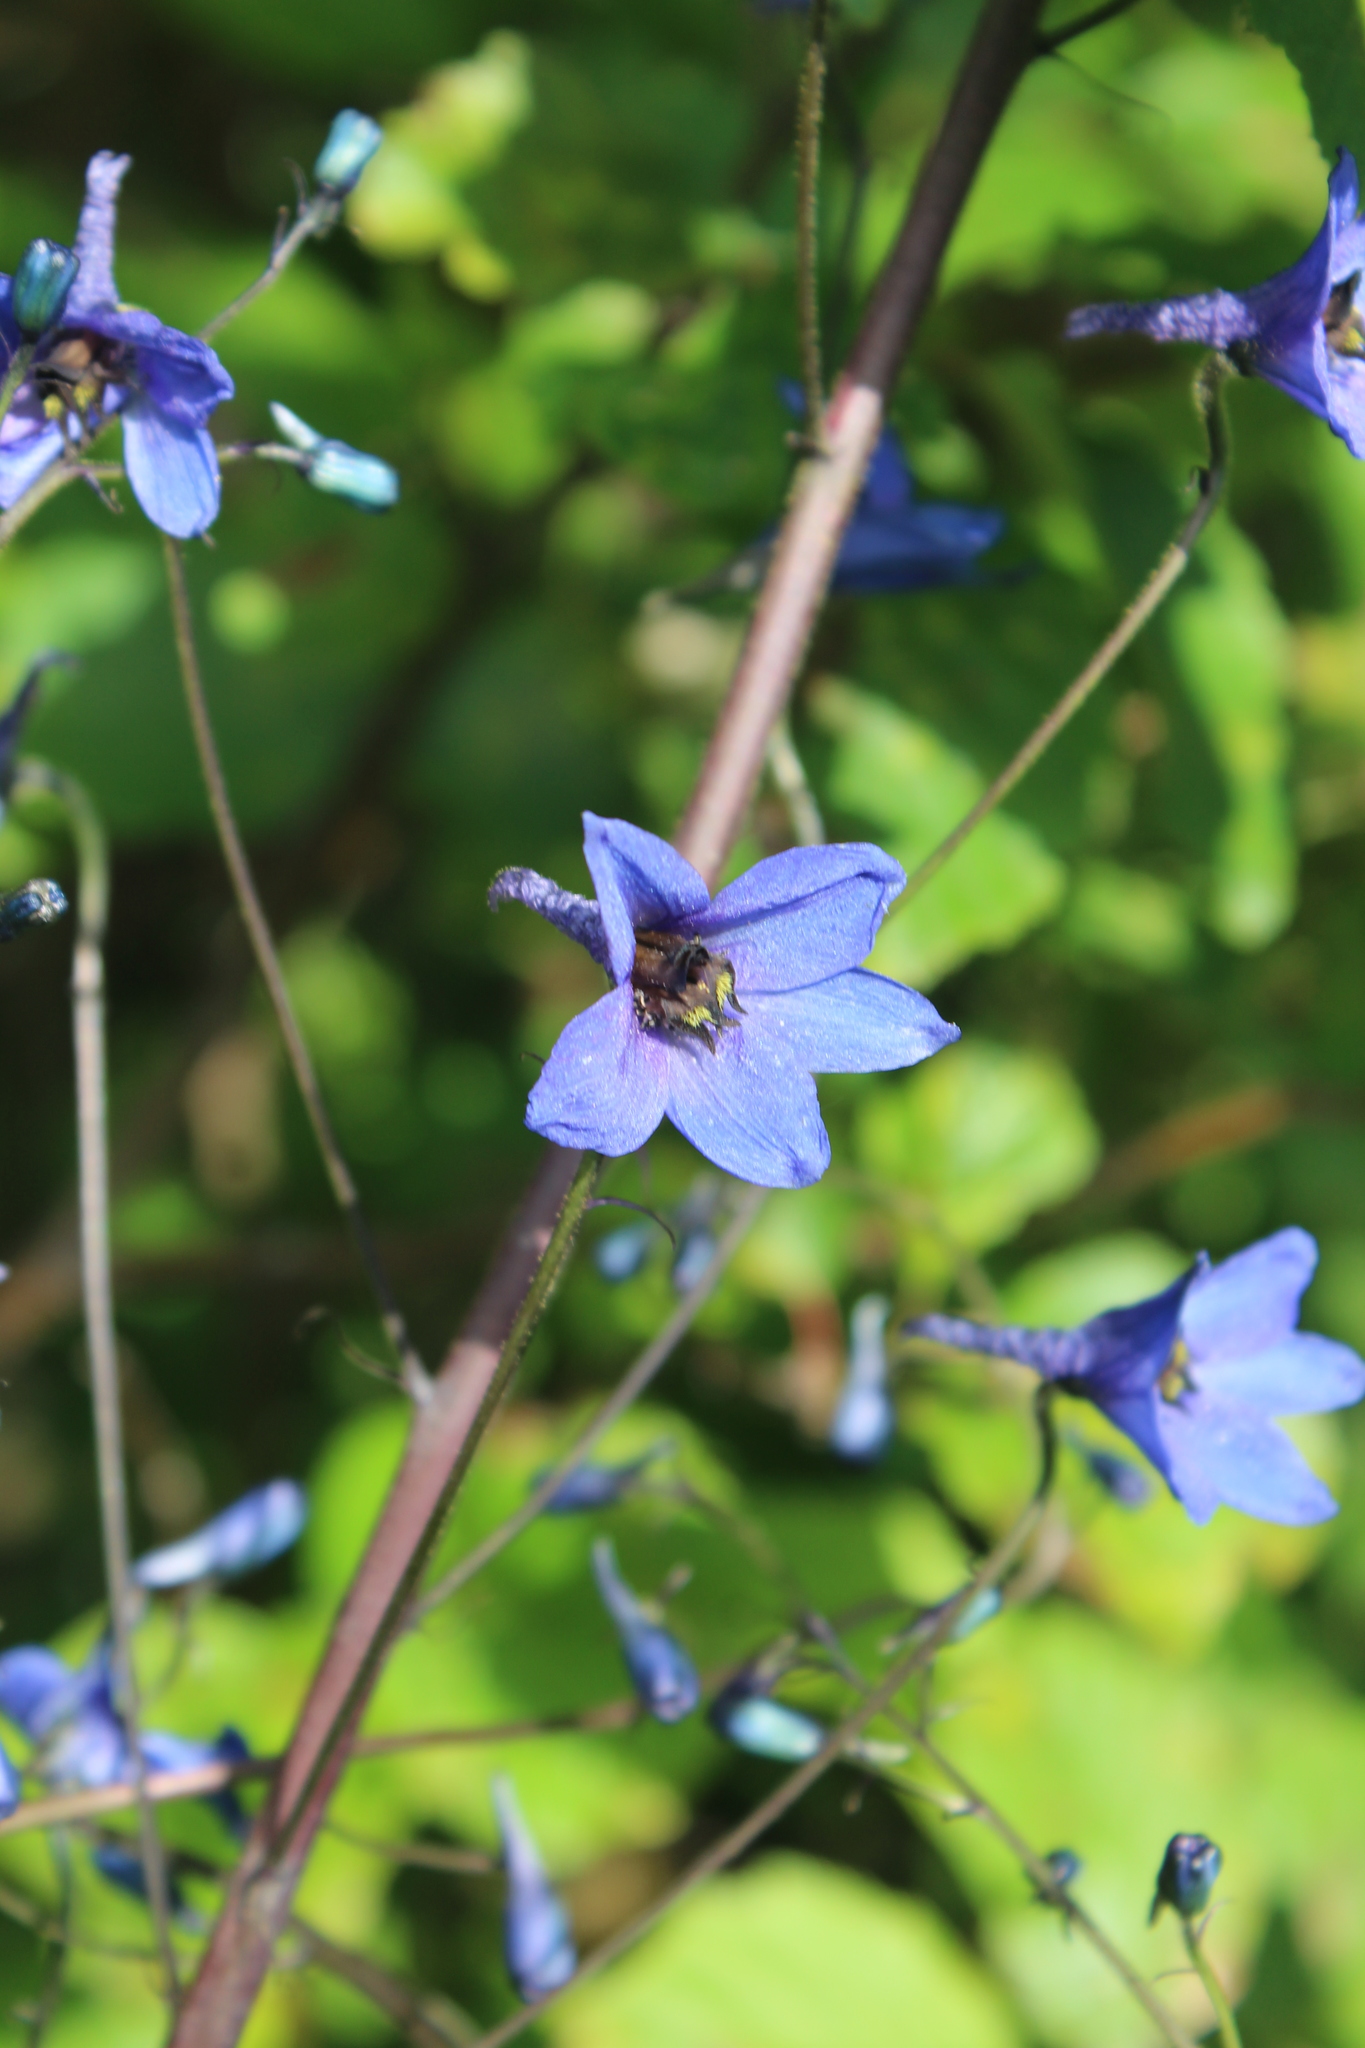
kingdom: Plantae
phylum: Tracheophyta
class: Magnoliopsida
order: Ranunculales
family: Ranunculaceae
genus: Delphinium
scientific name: Delphinium elatum
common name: Candle larkspur
